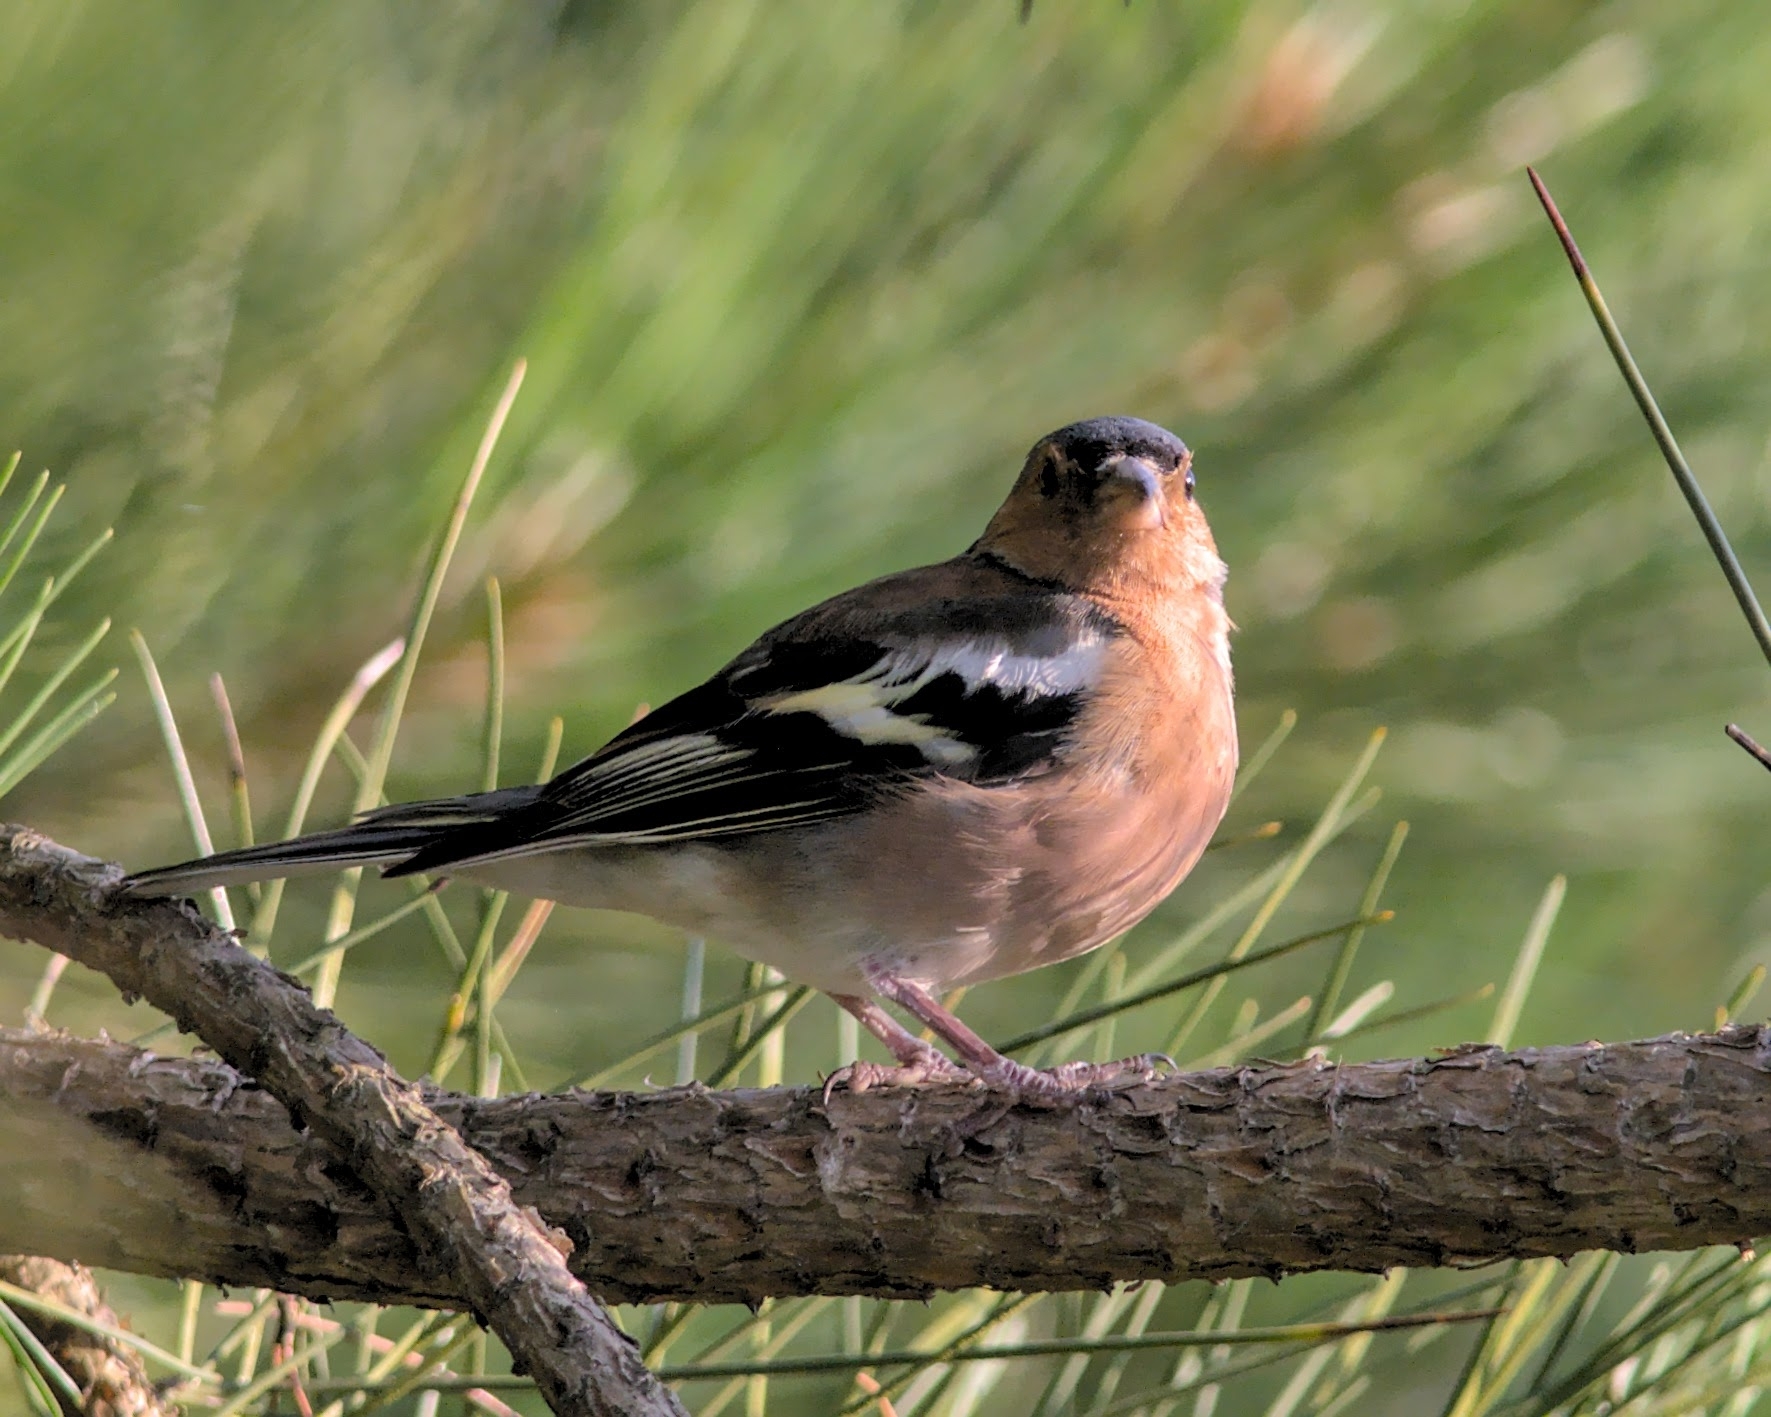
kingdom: Animalia
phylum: Chordata
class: Aves
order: Passeriformes
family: Fringillidae
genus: Fringilla
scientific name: Fringilla coelebs
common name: Common chaffinch
